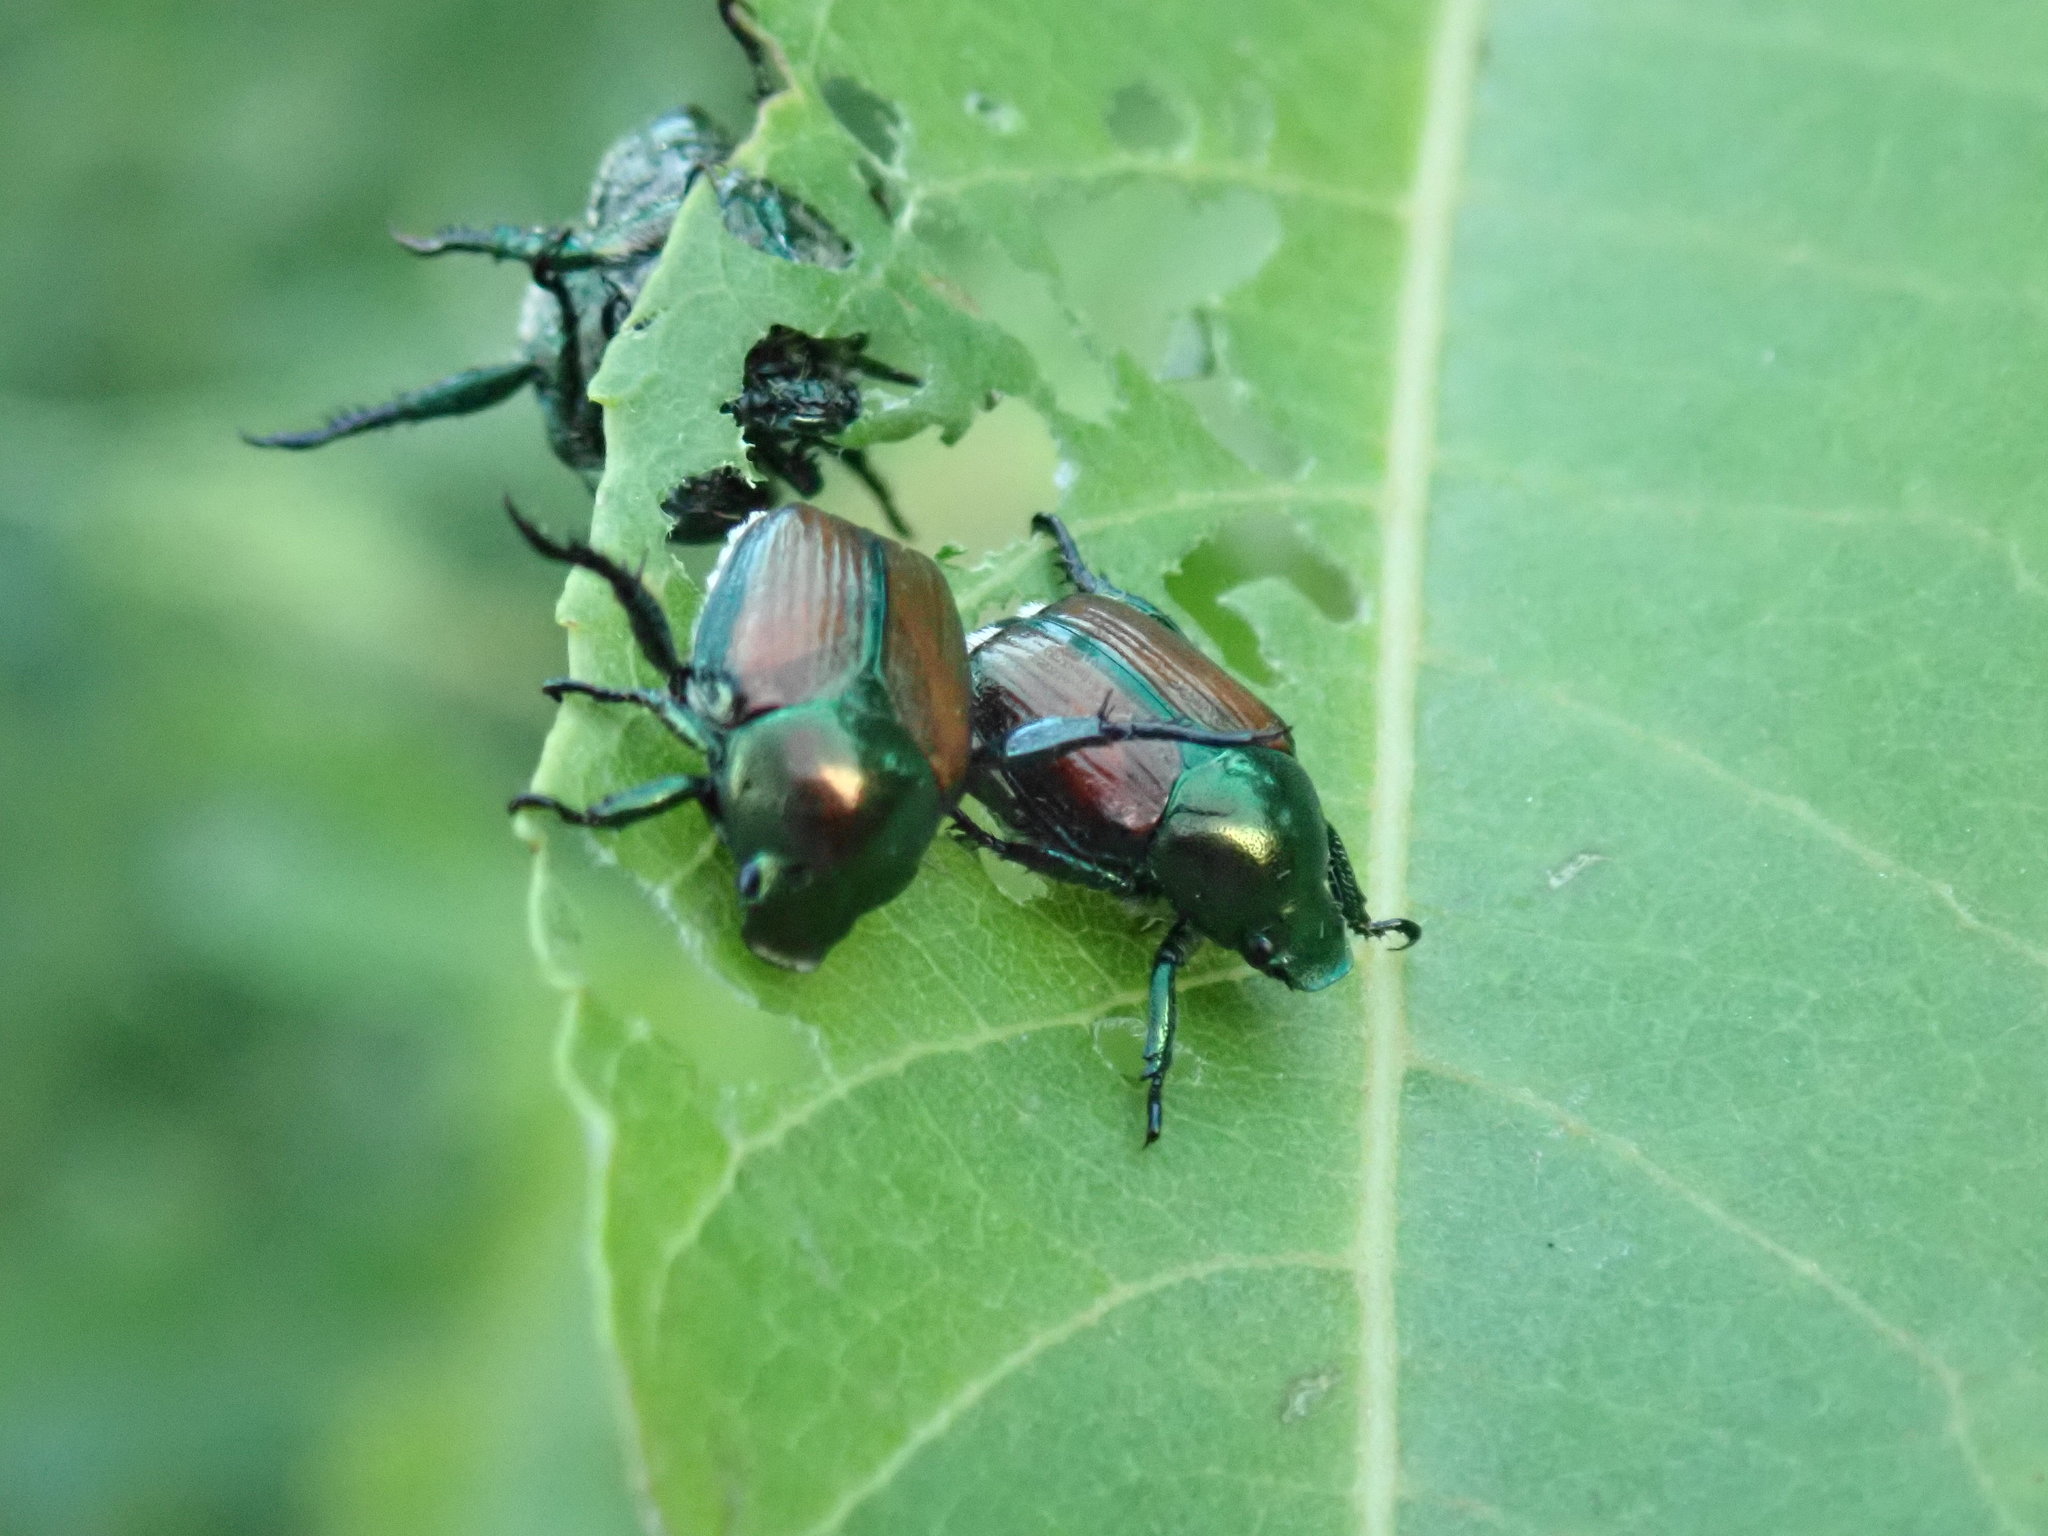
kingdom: Animalia
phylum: Arthropoda
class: Insecta
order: Coleoptera
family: Scarabaeidae
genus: Popillia
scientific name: Popillia japonica
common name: Japanese beetle
